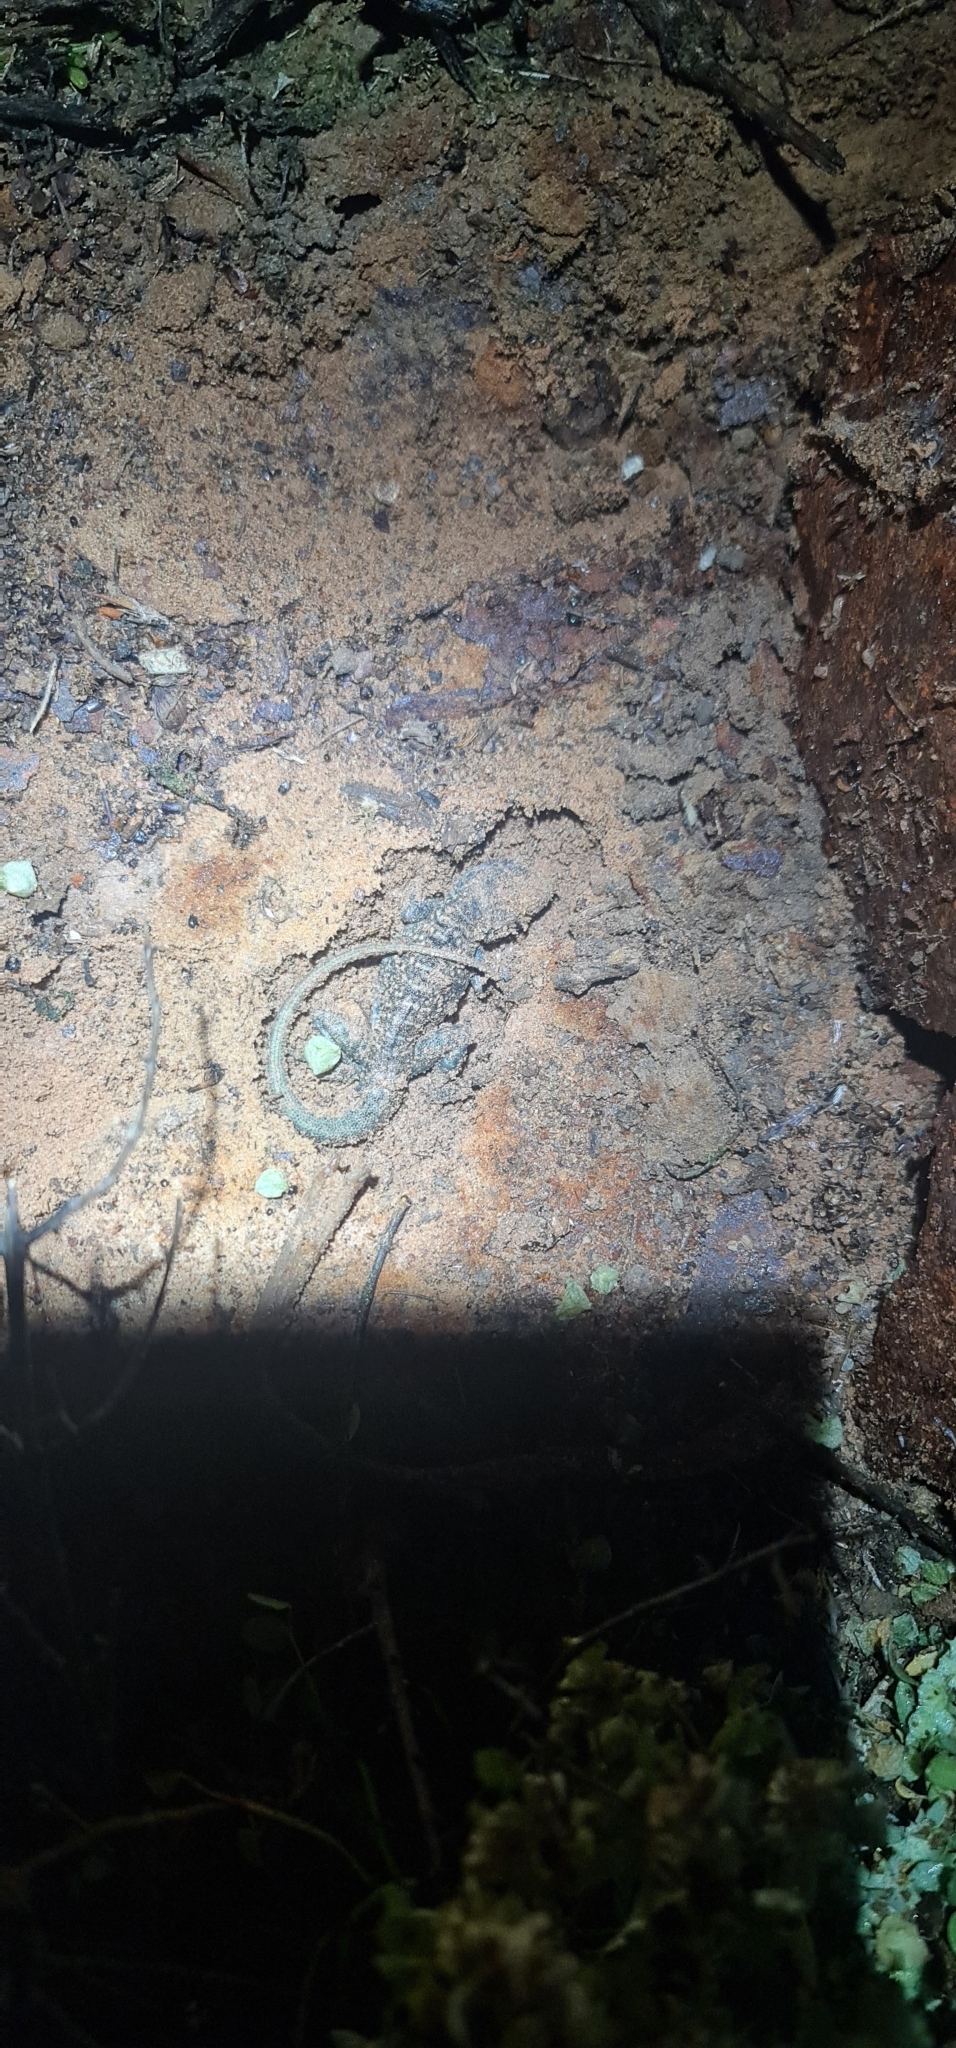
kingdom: Animalia
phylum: Chordata
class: Squamata
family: Agamidae
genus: Ctenophorus
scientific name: Ctenophorus pictus
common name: Painted dragon
